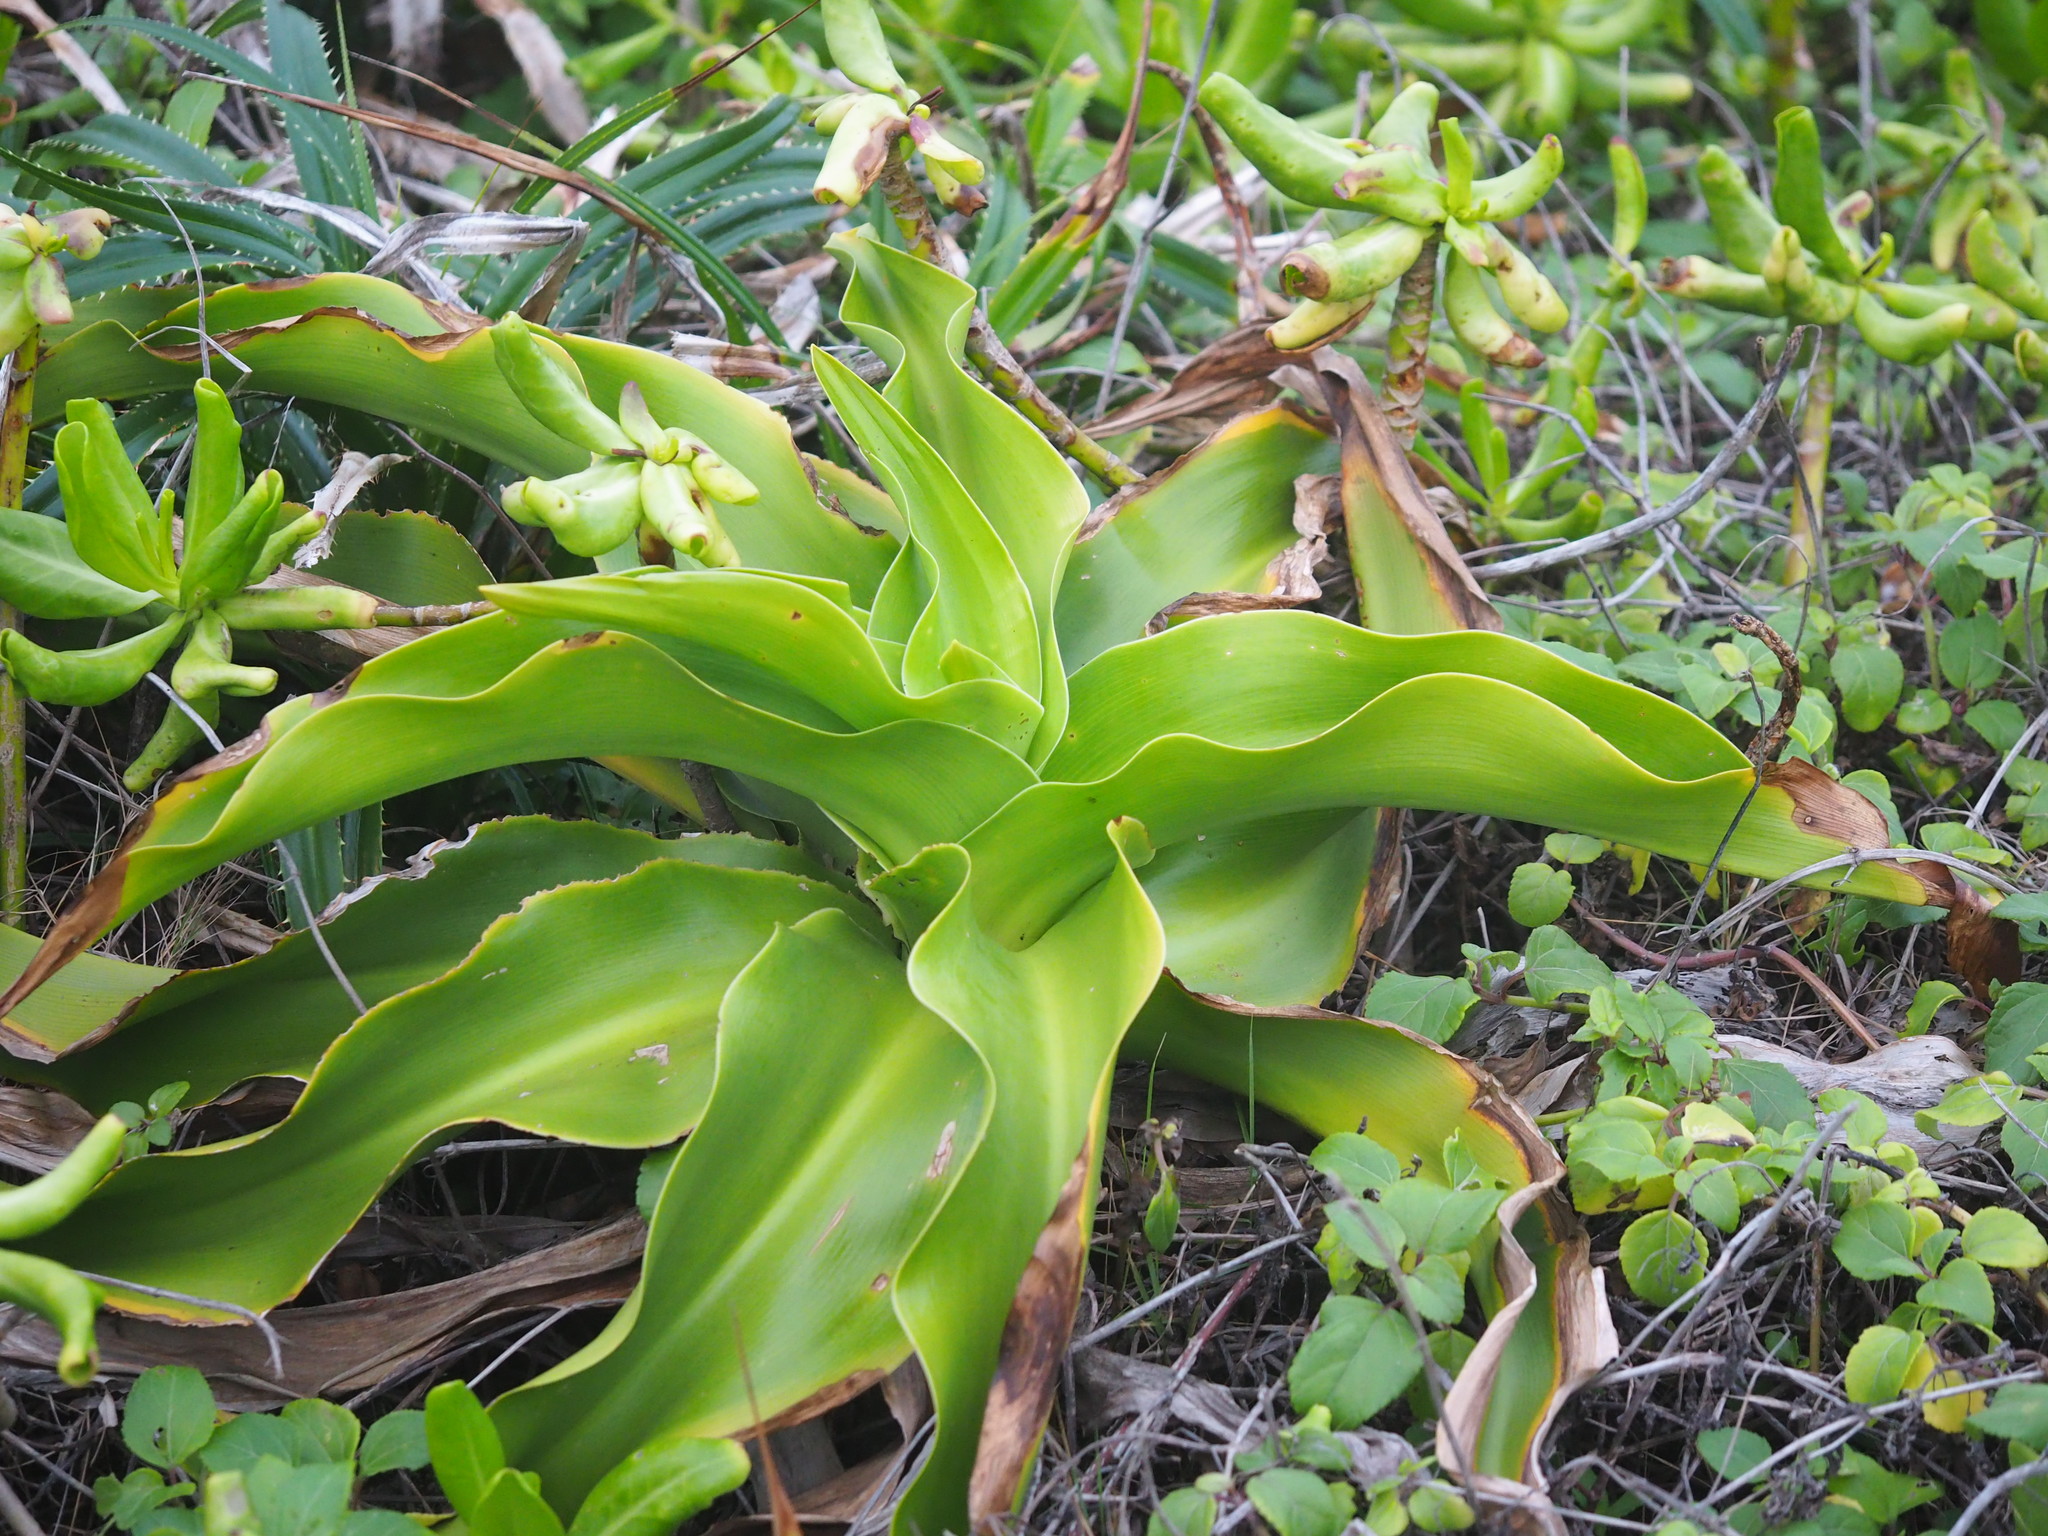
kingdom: Plantae
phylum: Tracheophyta
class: Liliopsida
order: Asparagales
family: Amaryllidaceae
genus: Crinum
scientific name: Crinum asiaticum
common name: Poisonbulb
